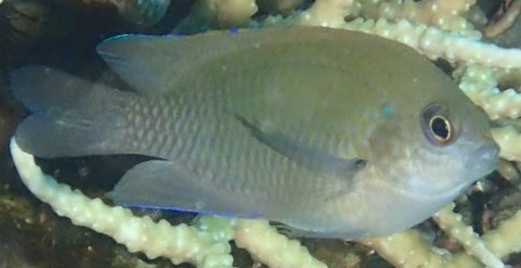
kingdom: Animalia
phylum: Chordata
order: Perciformes
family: Pomacentridae
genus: Pomacentrus
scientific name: Pomacentrus cuneatus
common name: Wedgespot damsel
